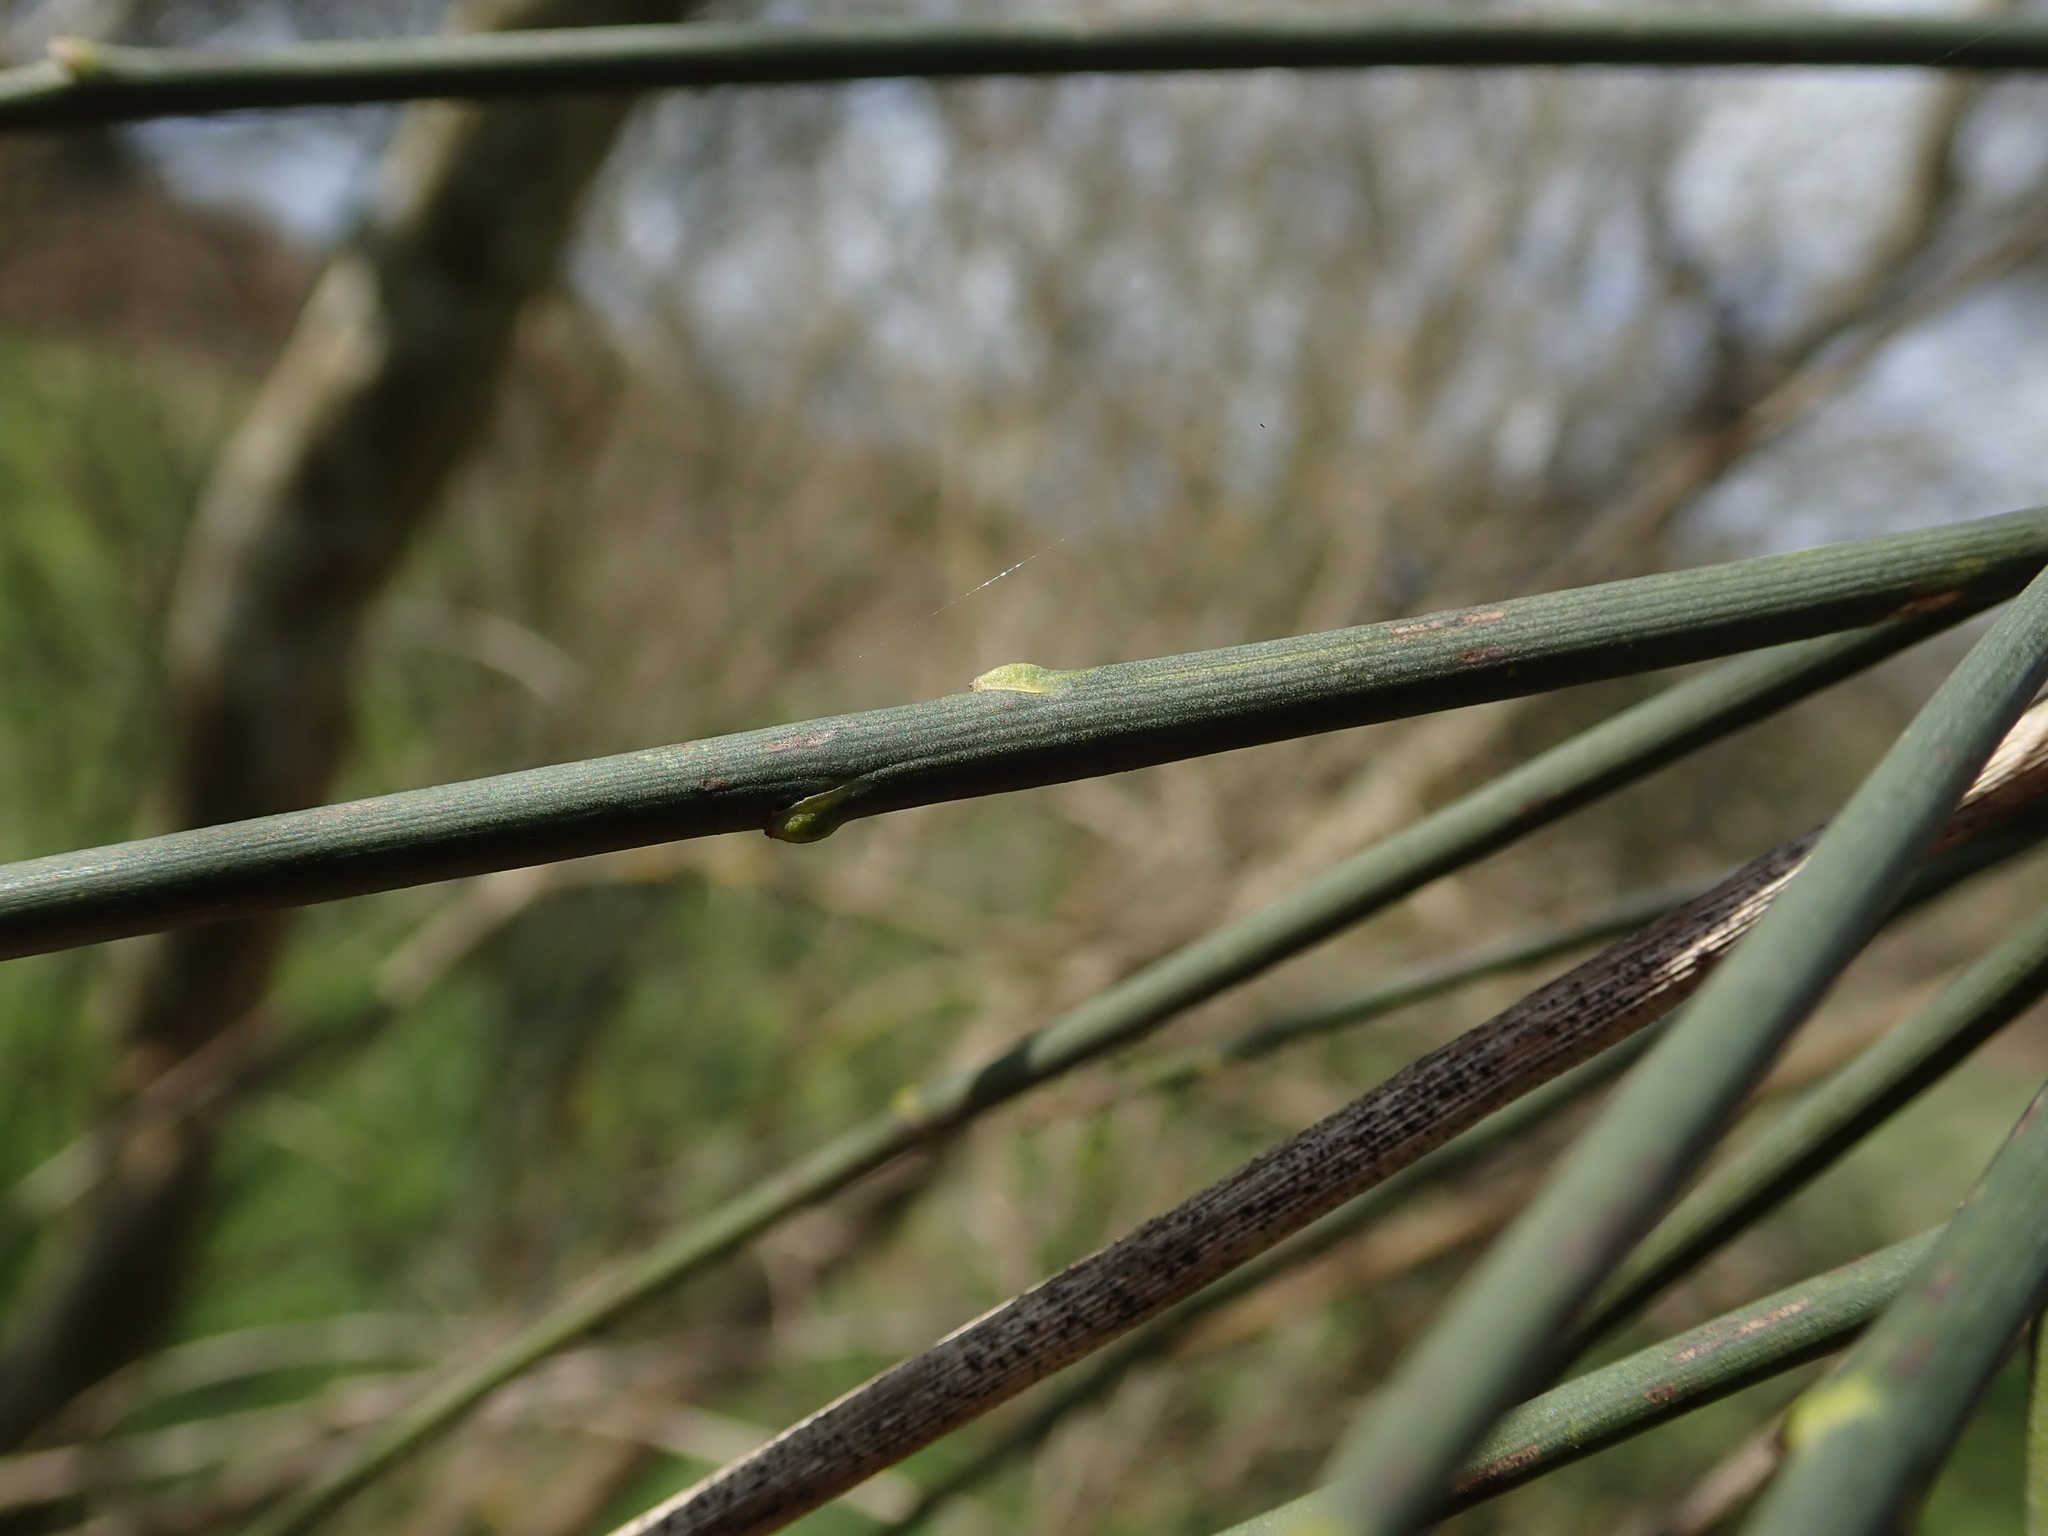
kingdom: Plantae
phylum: Tracheophyta
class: Magnoliopsida
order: Fabales
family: Fabaceae
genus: Spartium
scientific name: Spartium junceum
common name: Spanish broom
